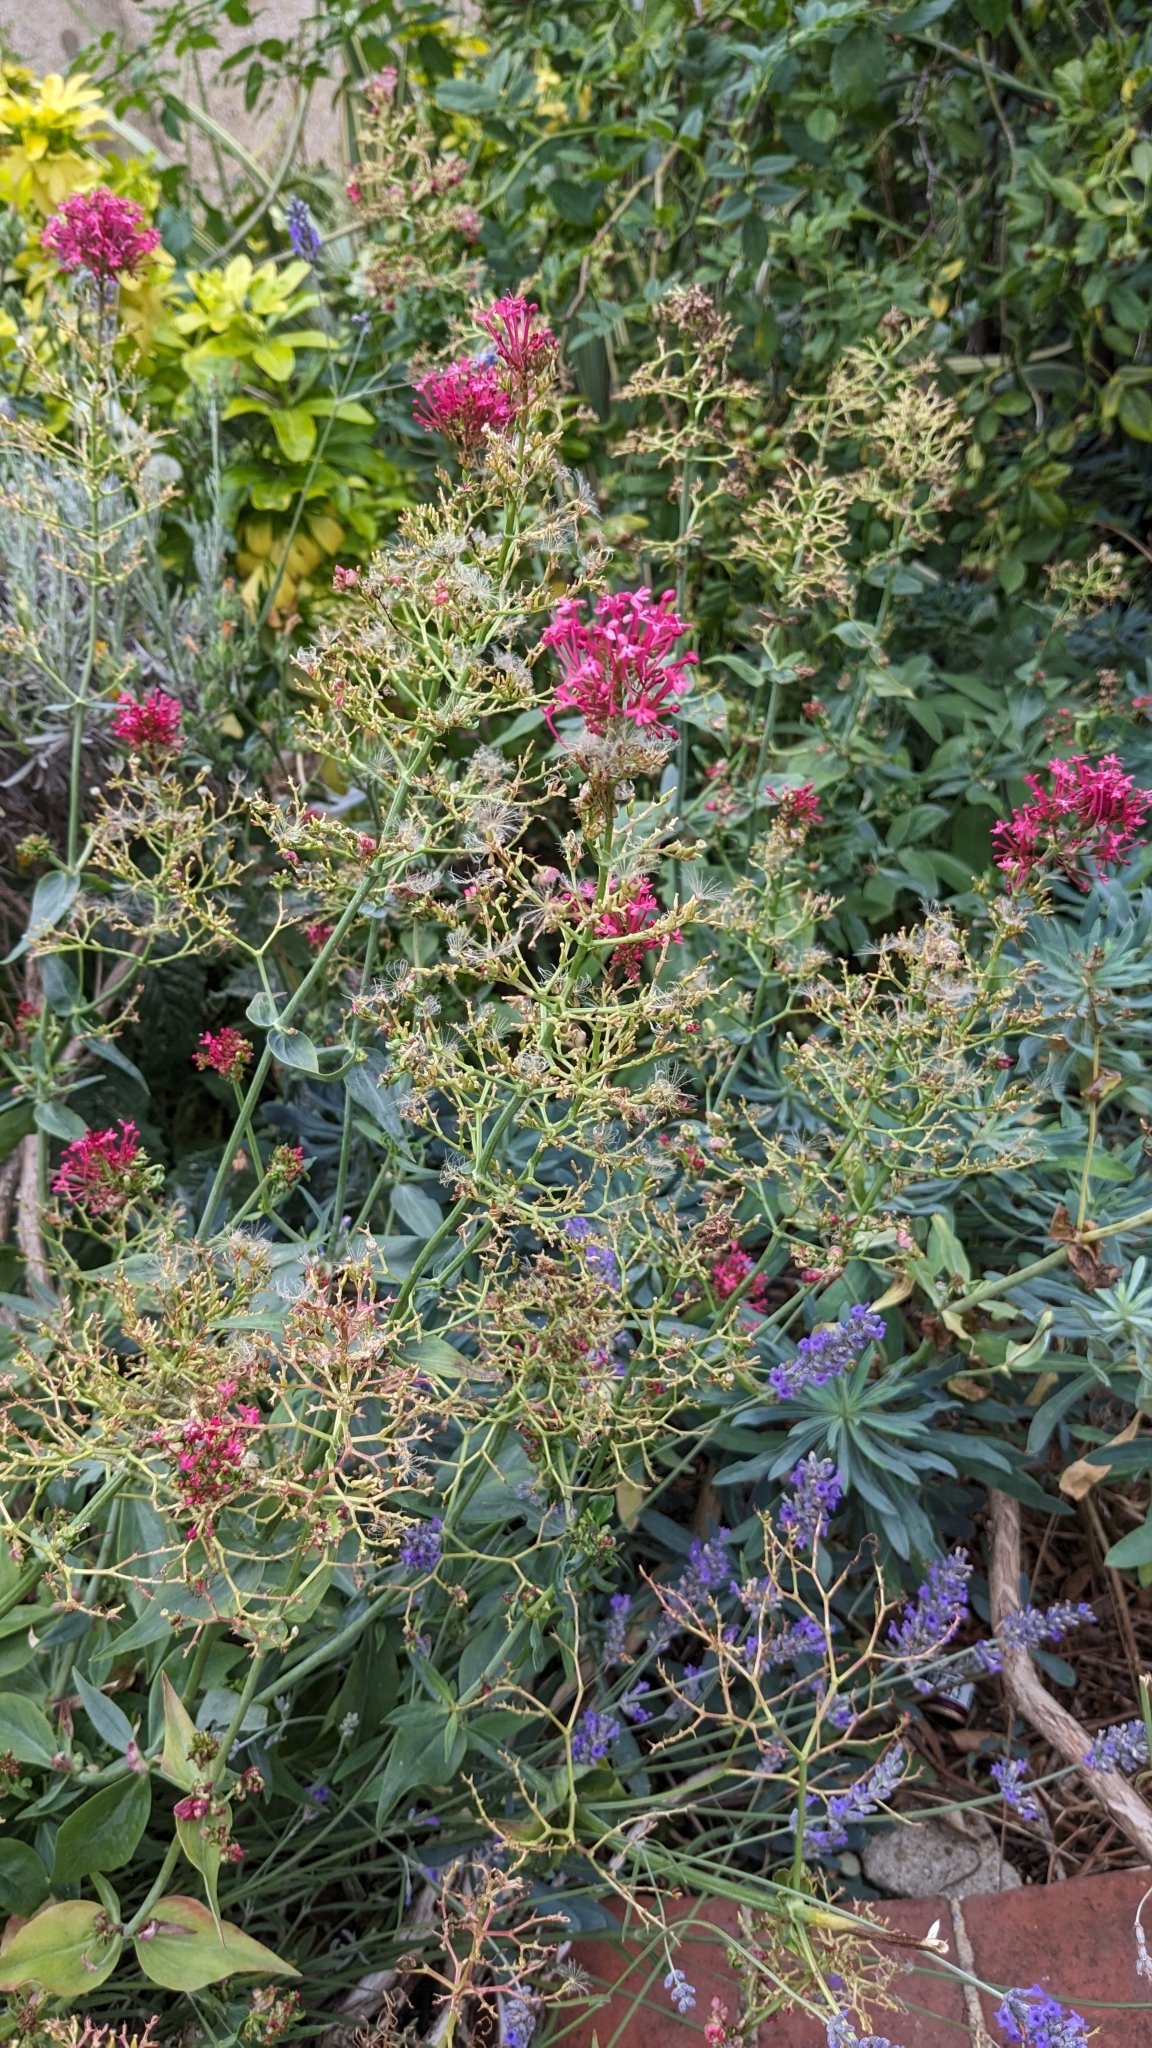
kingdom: Animalia
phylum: Arthropoda
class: Insecta
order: Hemiptera
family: Triozidae
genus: Trioza
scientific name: Trioza centranthi
